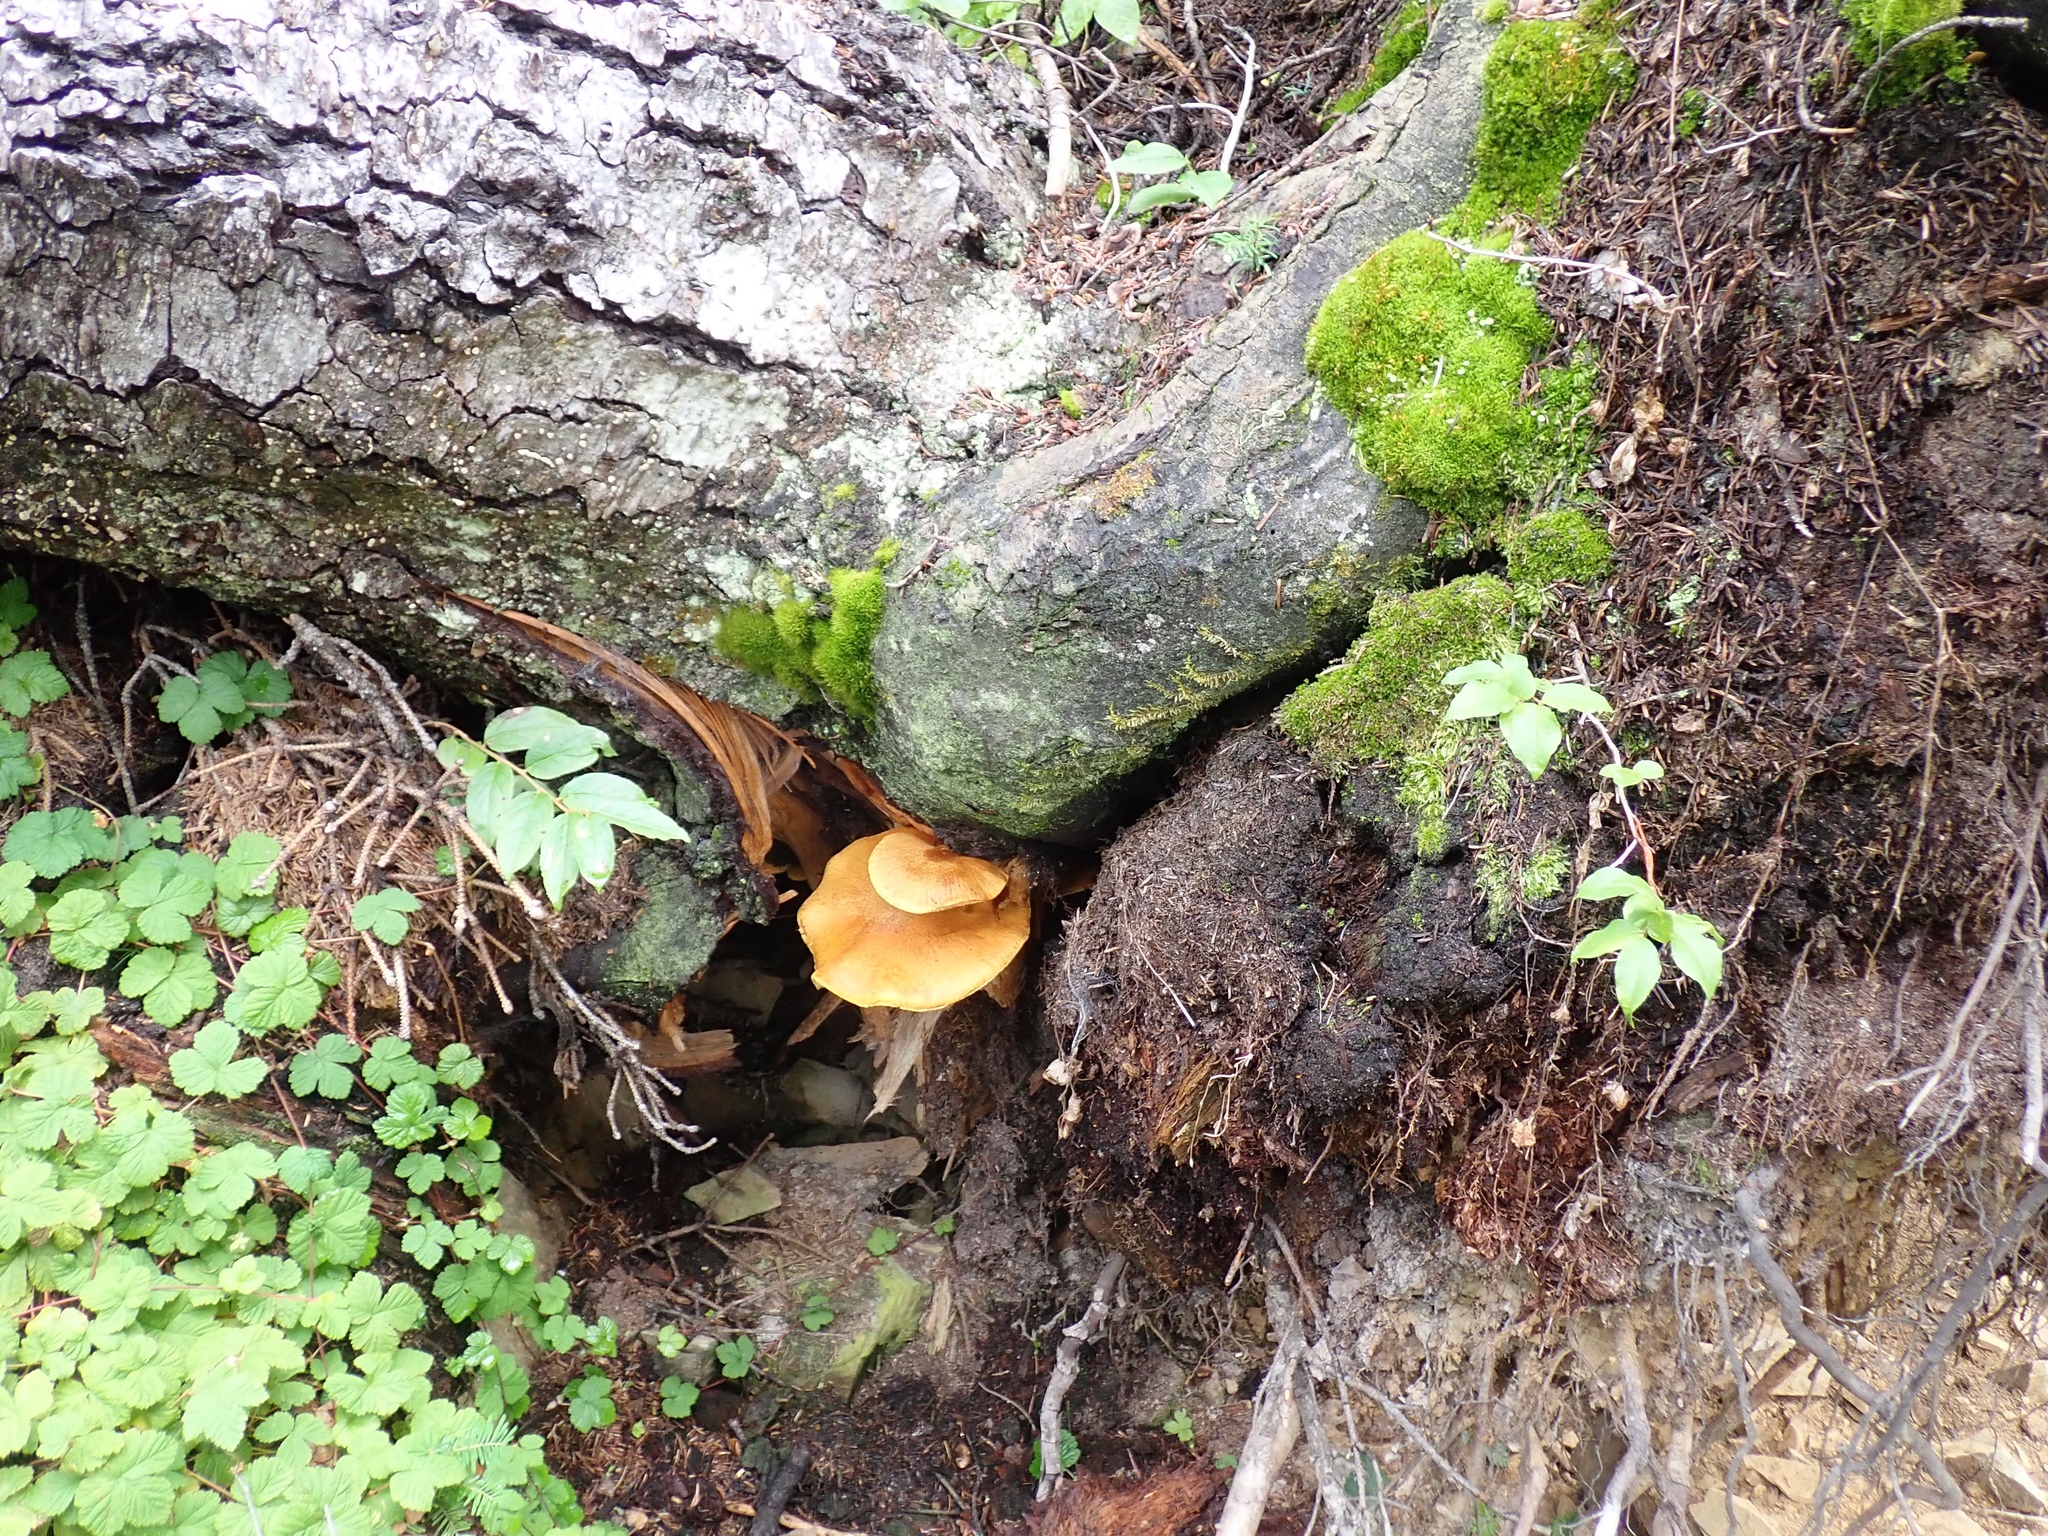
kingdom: Fungi
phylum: Basidiomycota
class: Agaricomycetes
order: Agaricales
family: Strophariaceae
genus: Pholiota
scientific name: Pholiota populnea
